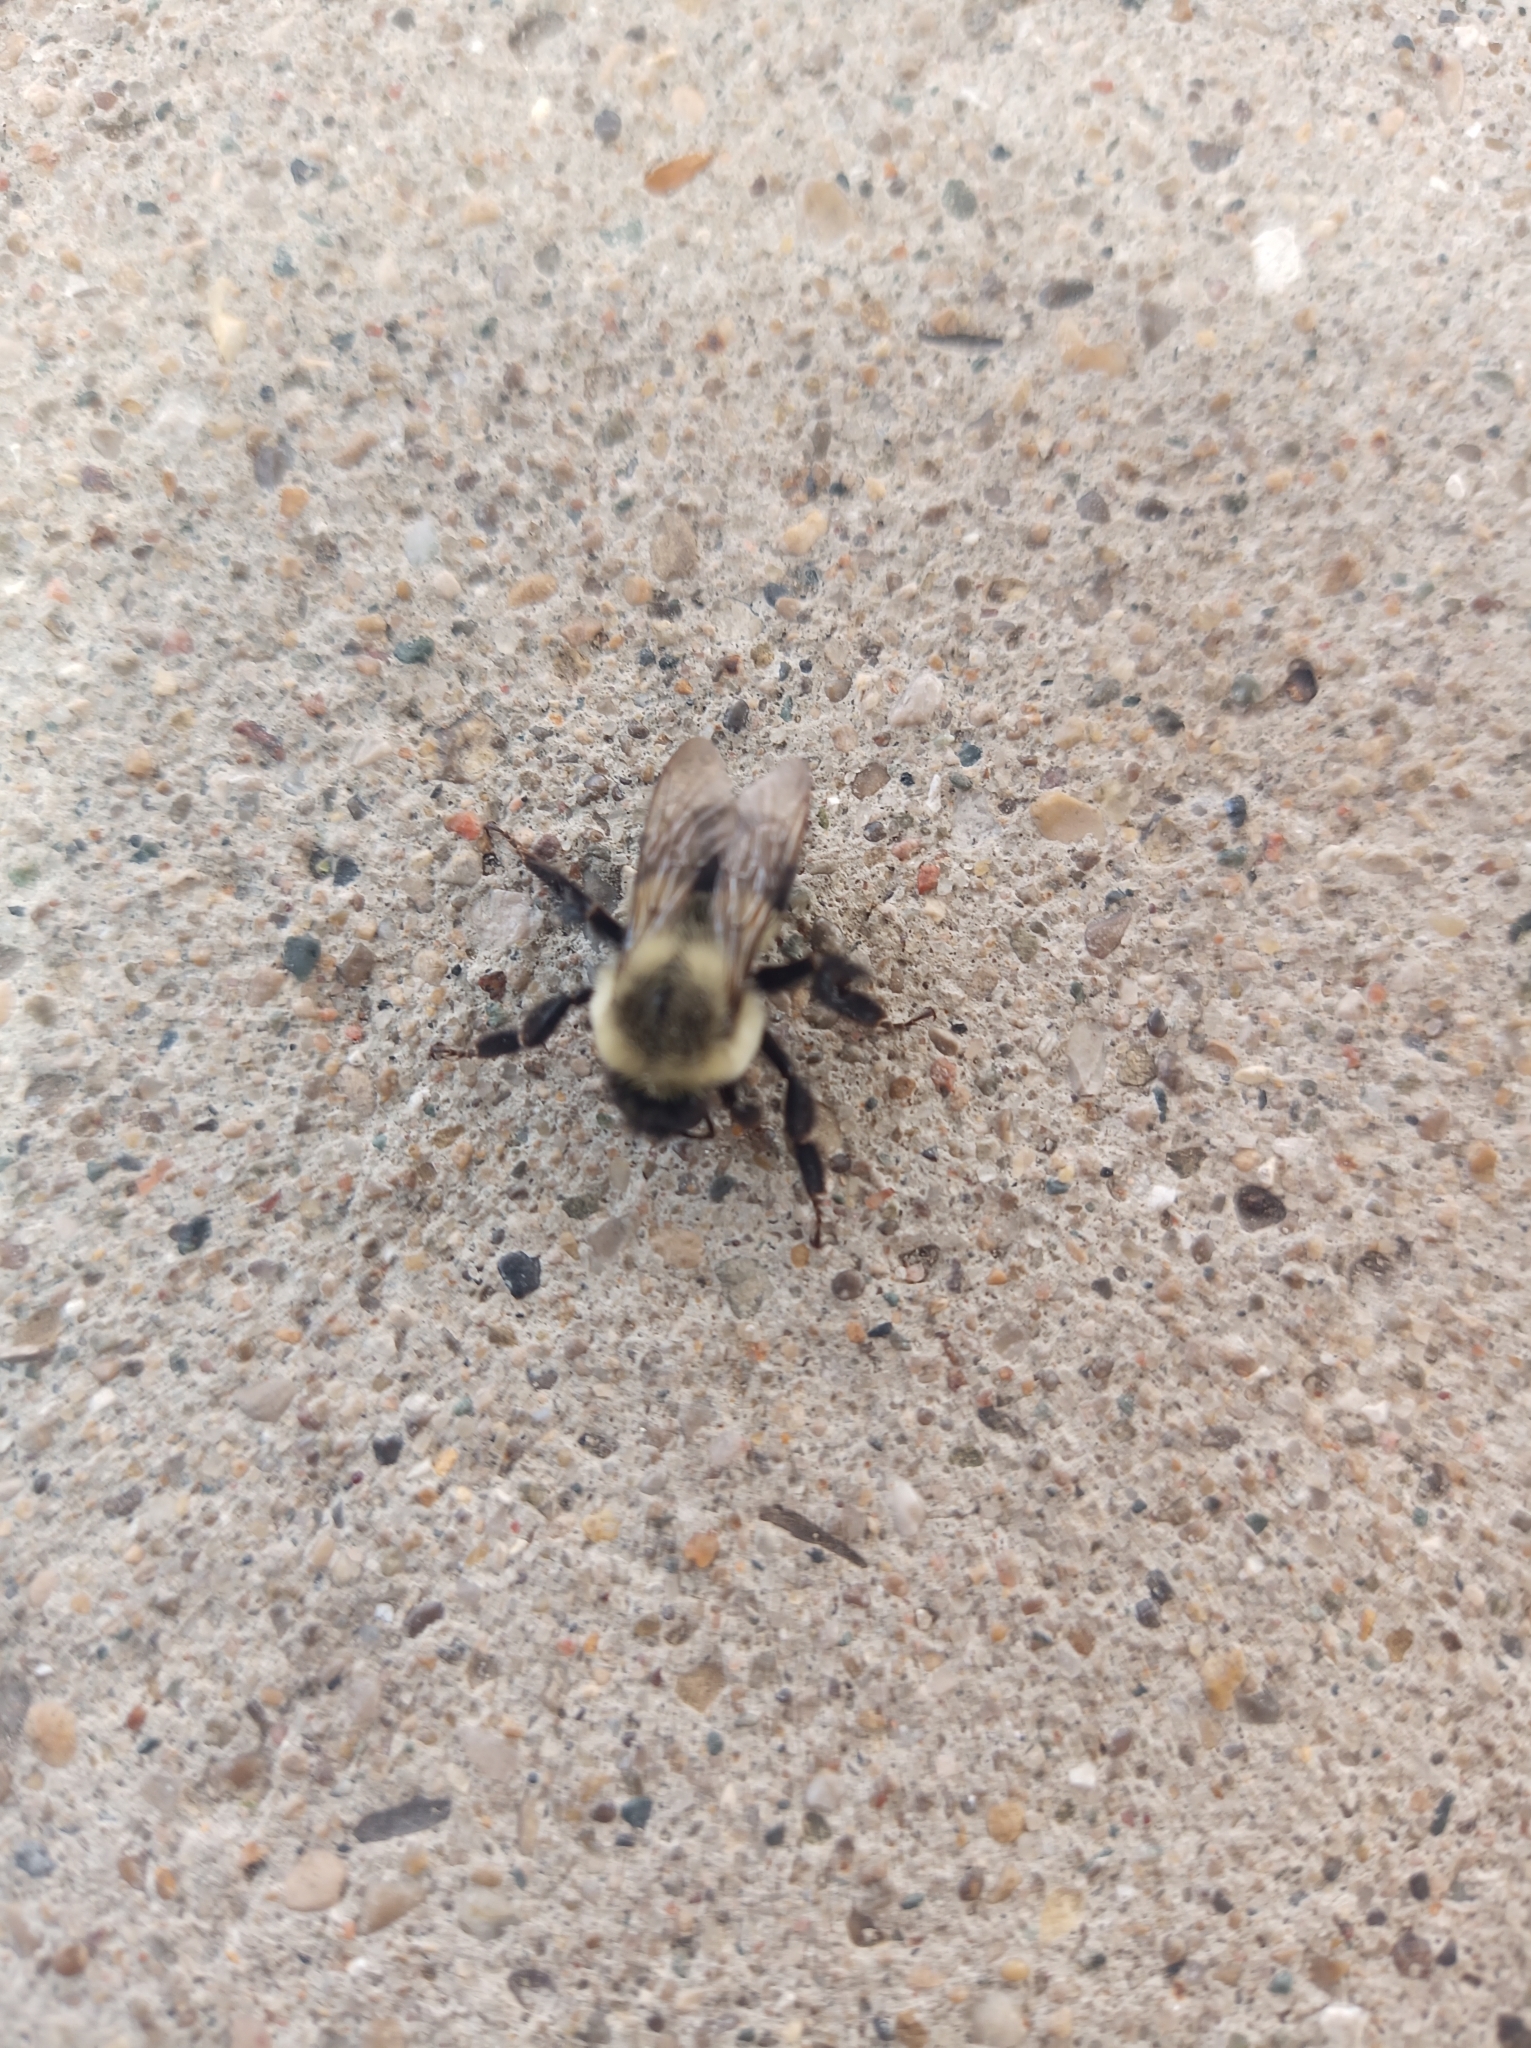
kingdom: Animalia
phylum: Arthropoda
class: Insecta
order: Hymenoptera
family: Apidae
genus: Bombus
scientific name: Bombus impatiens
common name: Common eastern bumble bee
